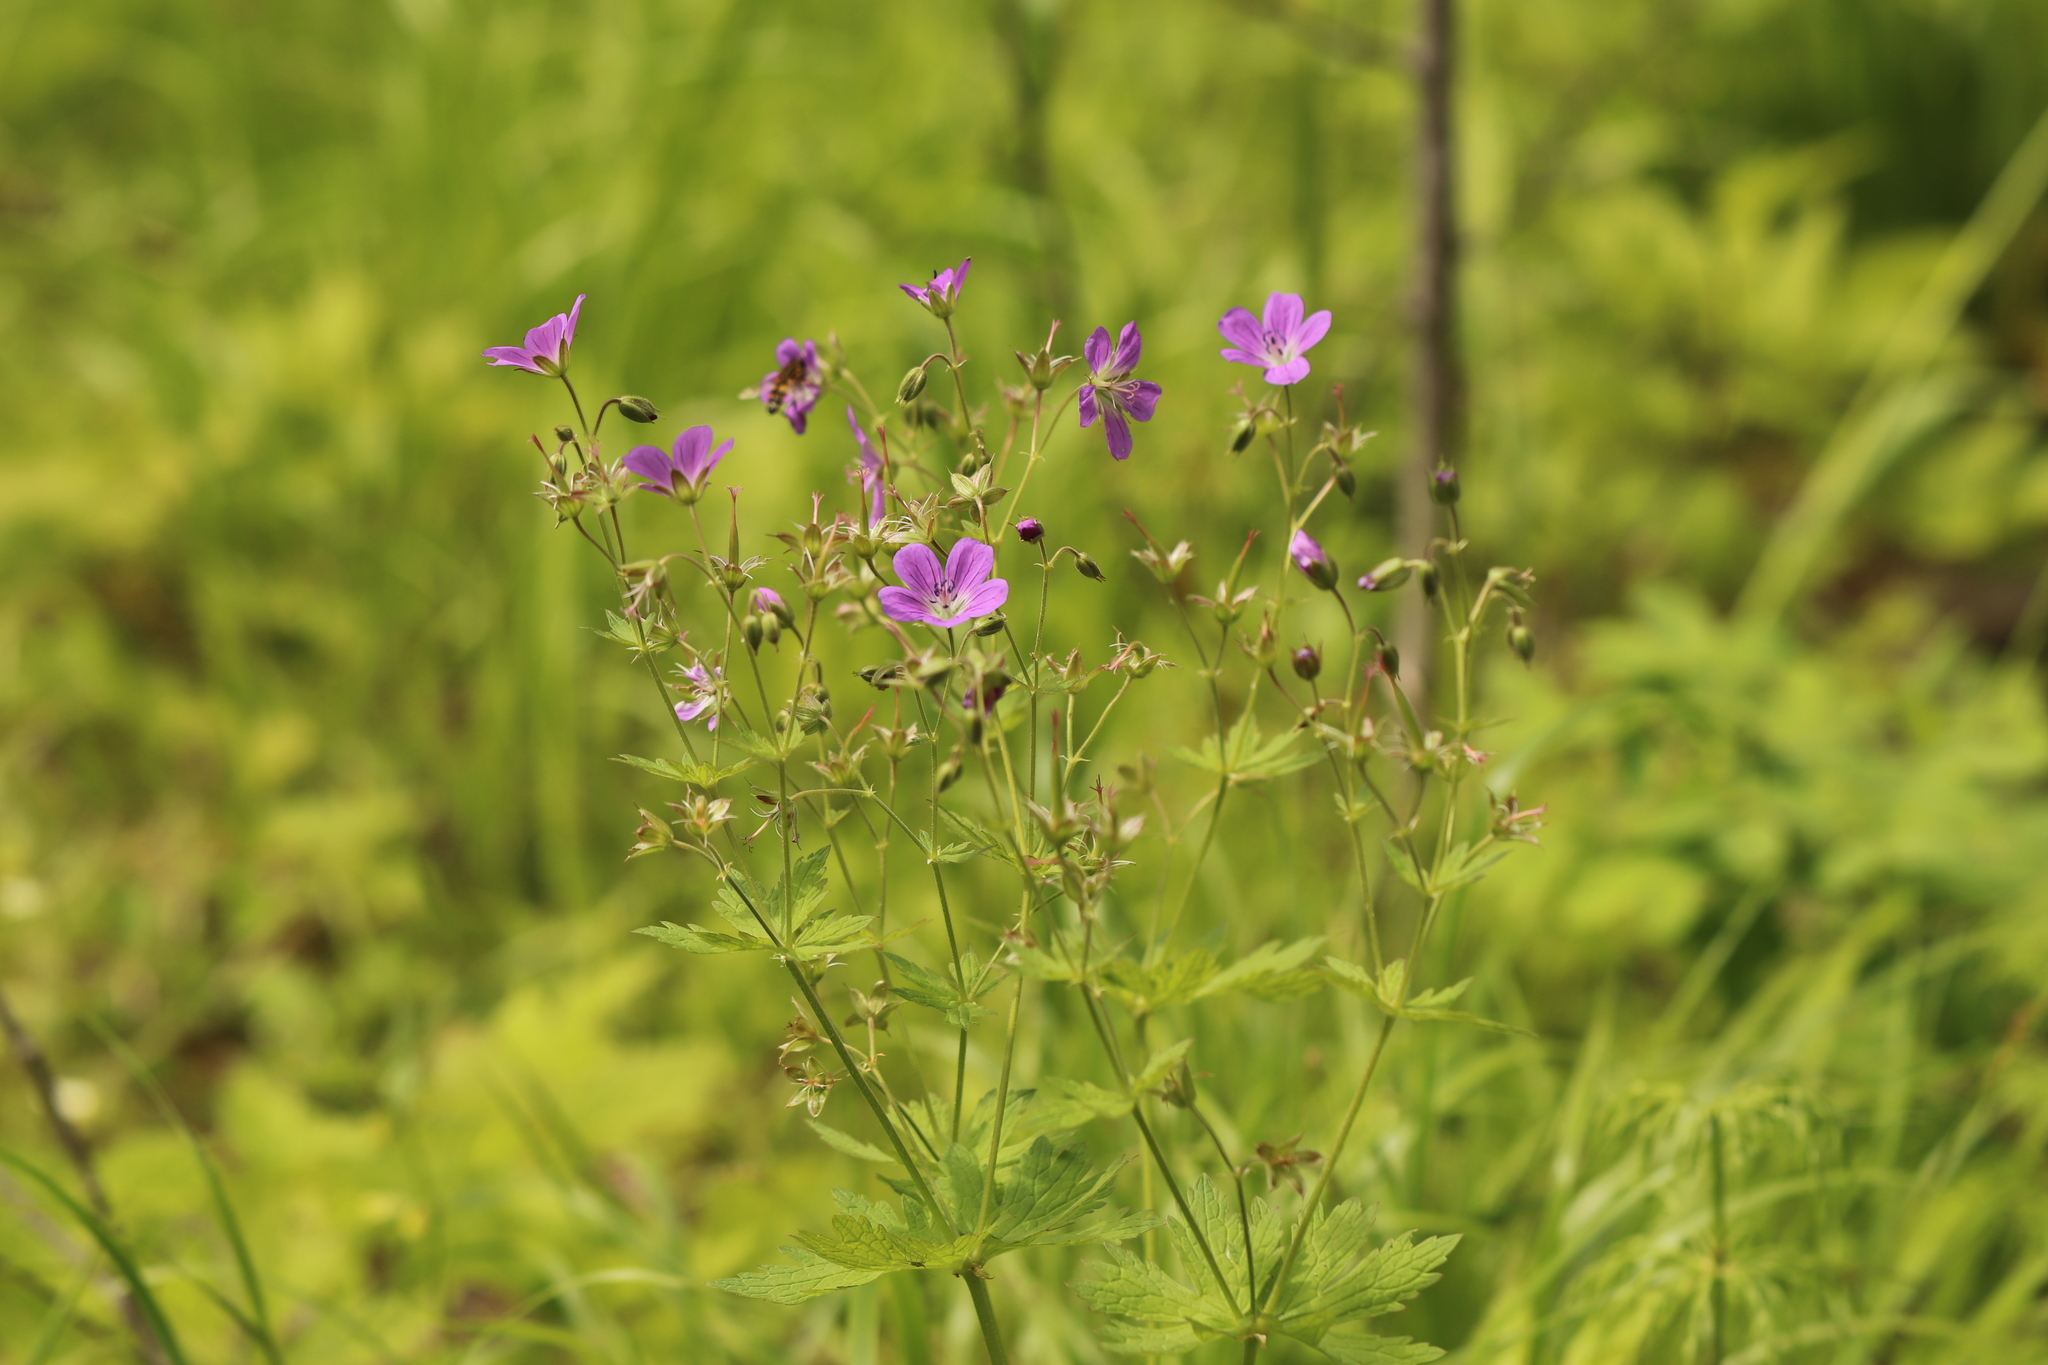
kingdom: Plantae
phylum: Tracheophyta
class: Magnoliopsida
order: Geraniales
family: Geraniaceae
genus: Geranium
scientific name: Geranium sylvaticum
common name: Wood crane's-bill
